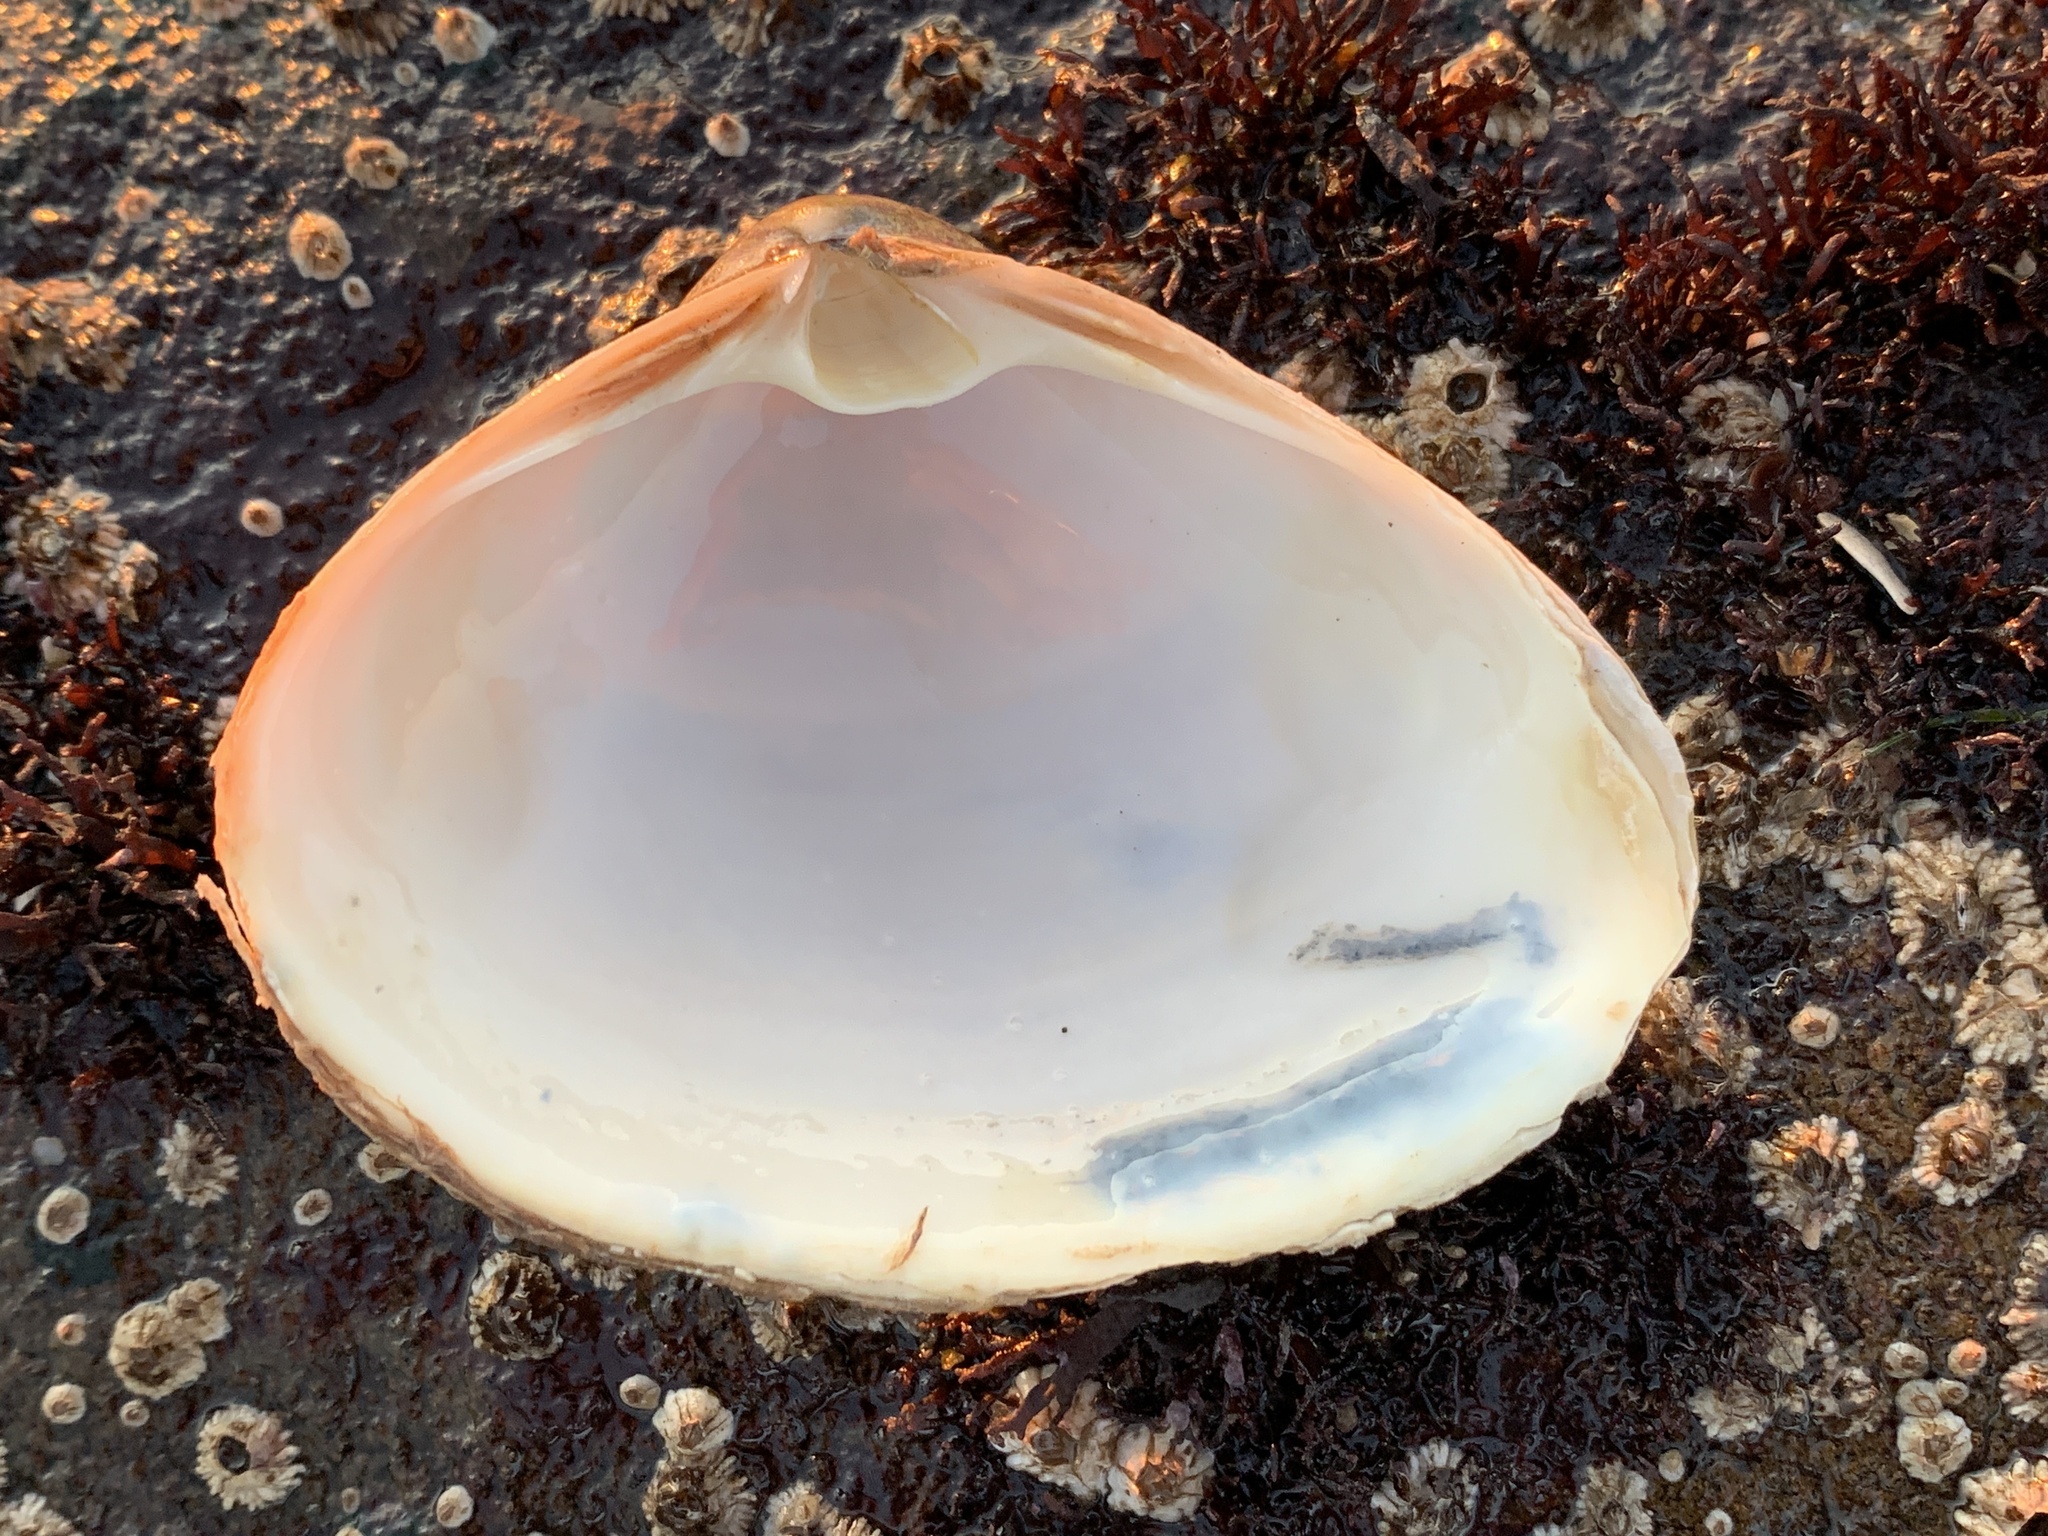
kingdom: Animalia
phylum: Mollusca
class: Bivalvia
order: Venerida
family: Mactridae
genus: Spisula
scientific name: Spisula solidissima
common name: Atlantic surf clam
